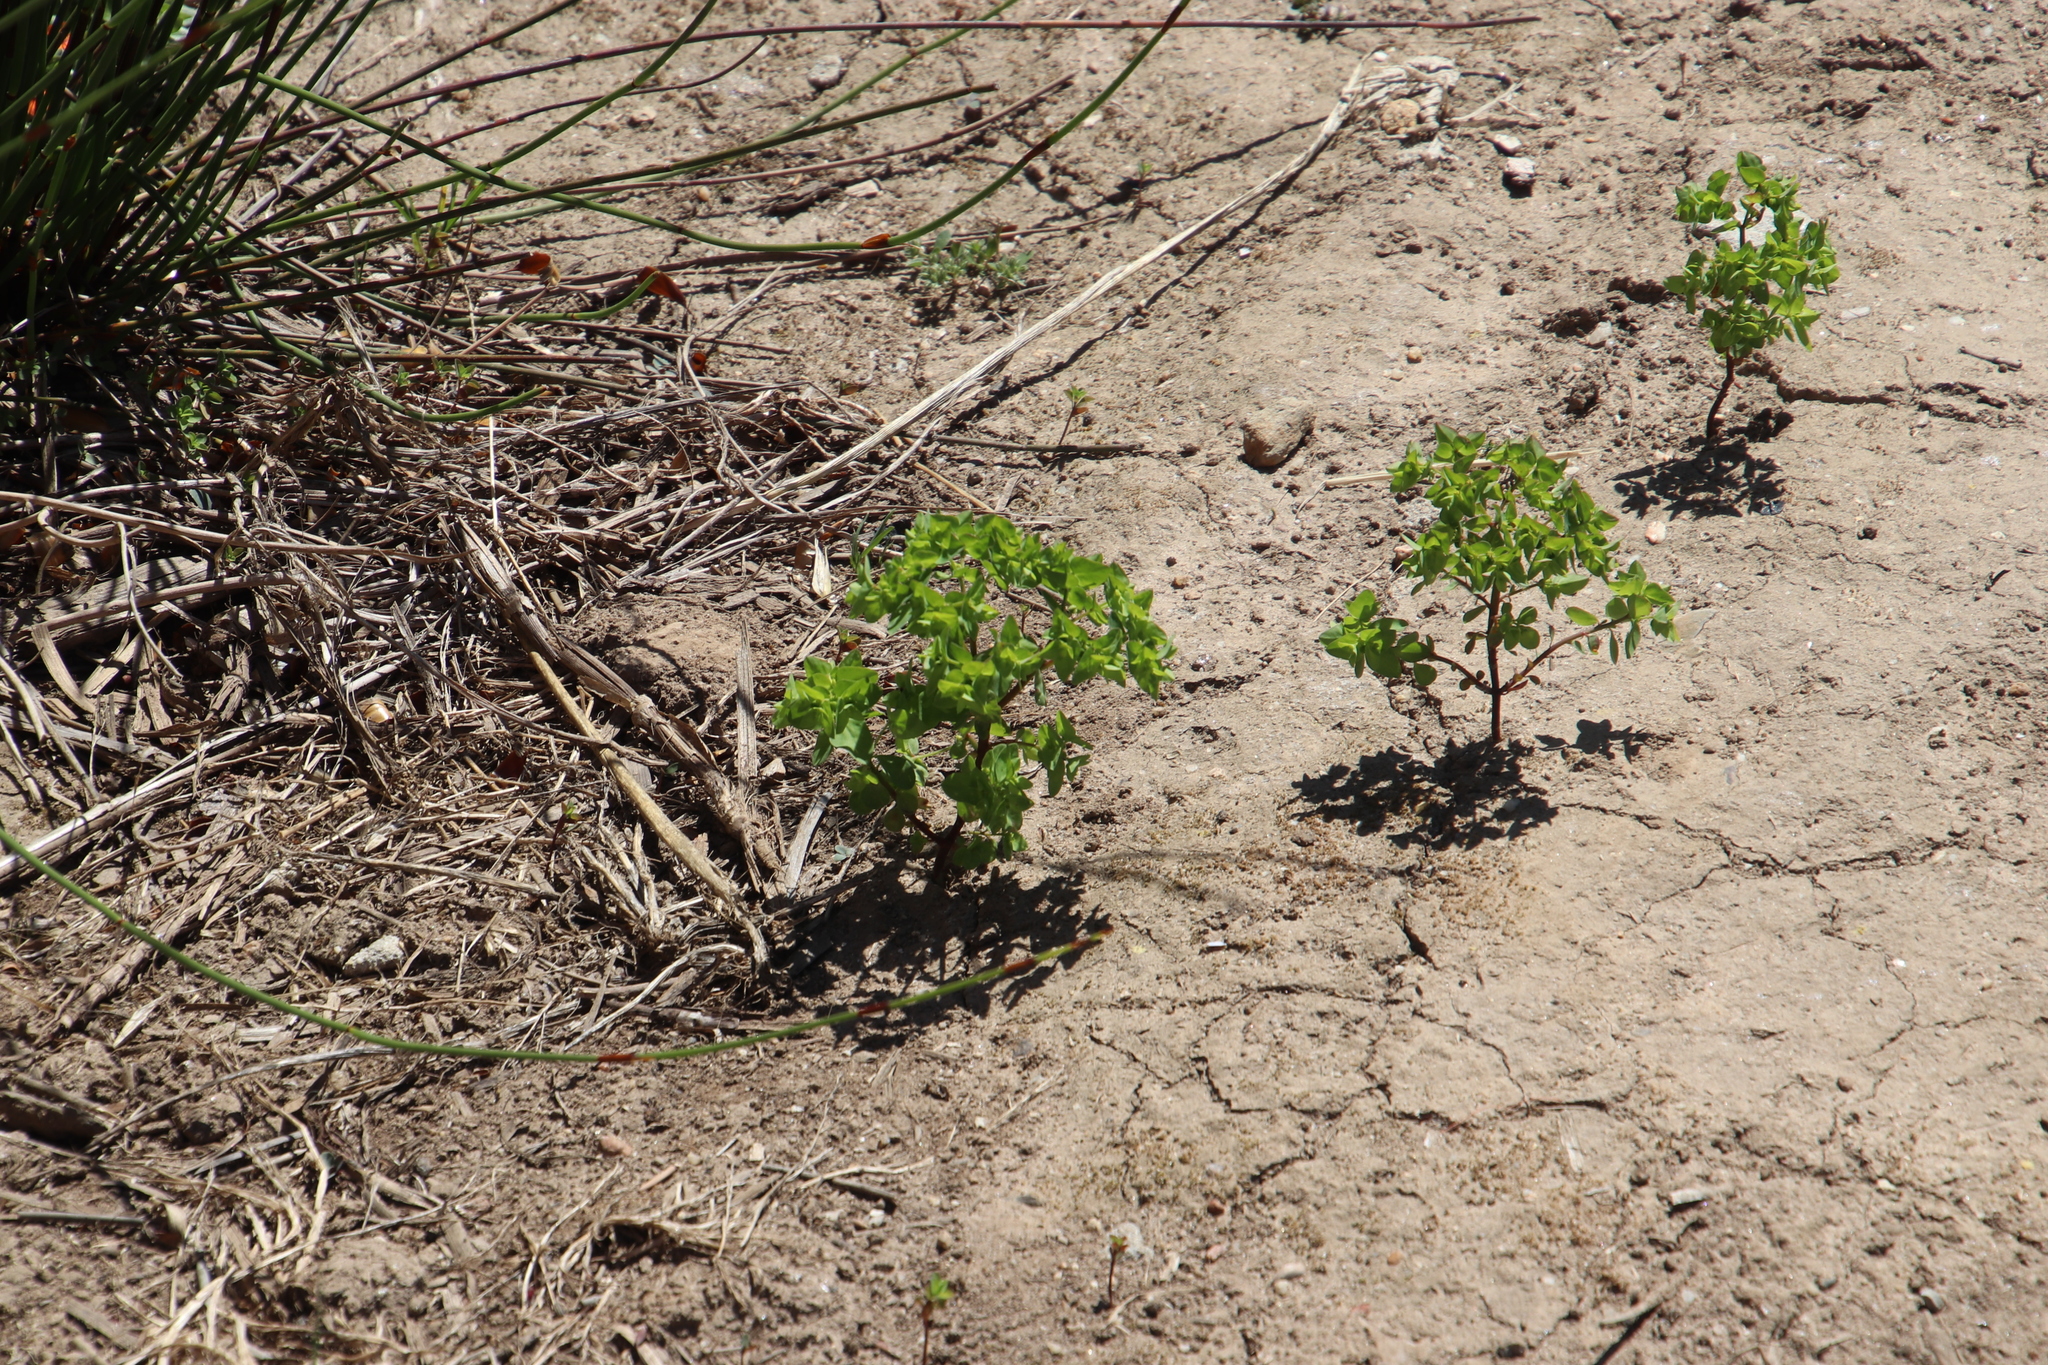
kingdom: Plantae
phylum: Tracheophyta
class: Magnoliopsida
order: Malpighiales
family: Euphorbiaceae
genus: Euphorbia
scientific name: Euphorbia peplus
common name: Petty spurge
